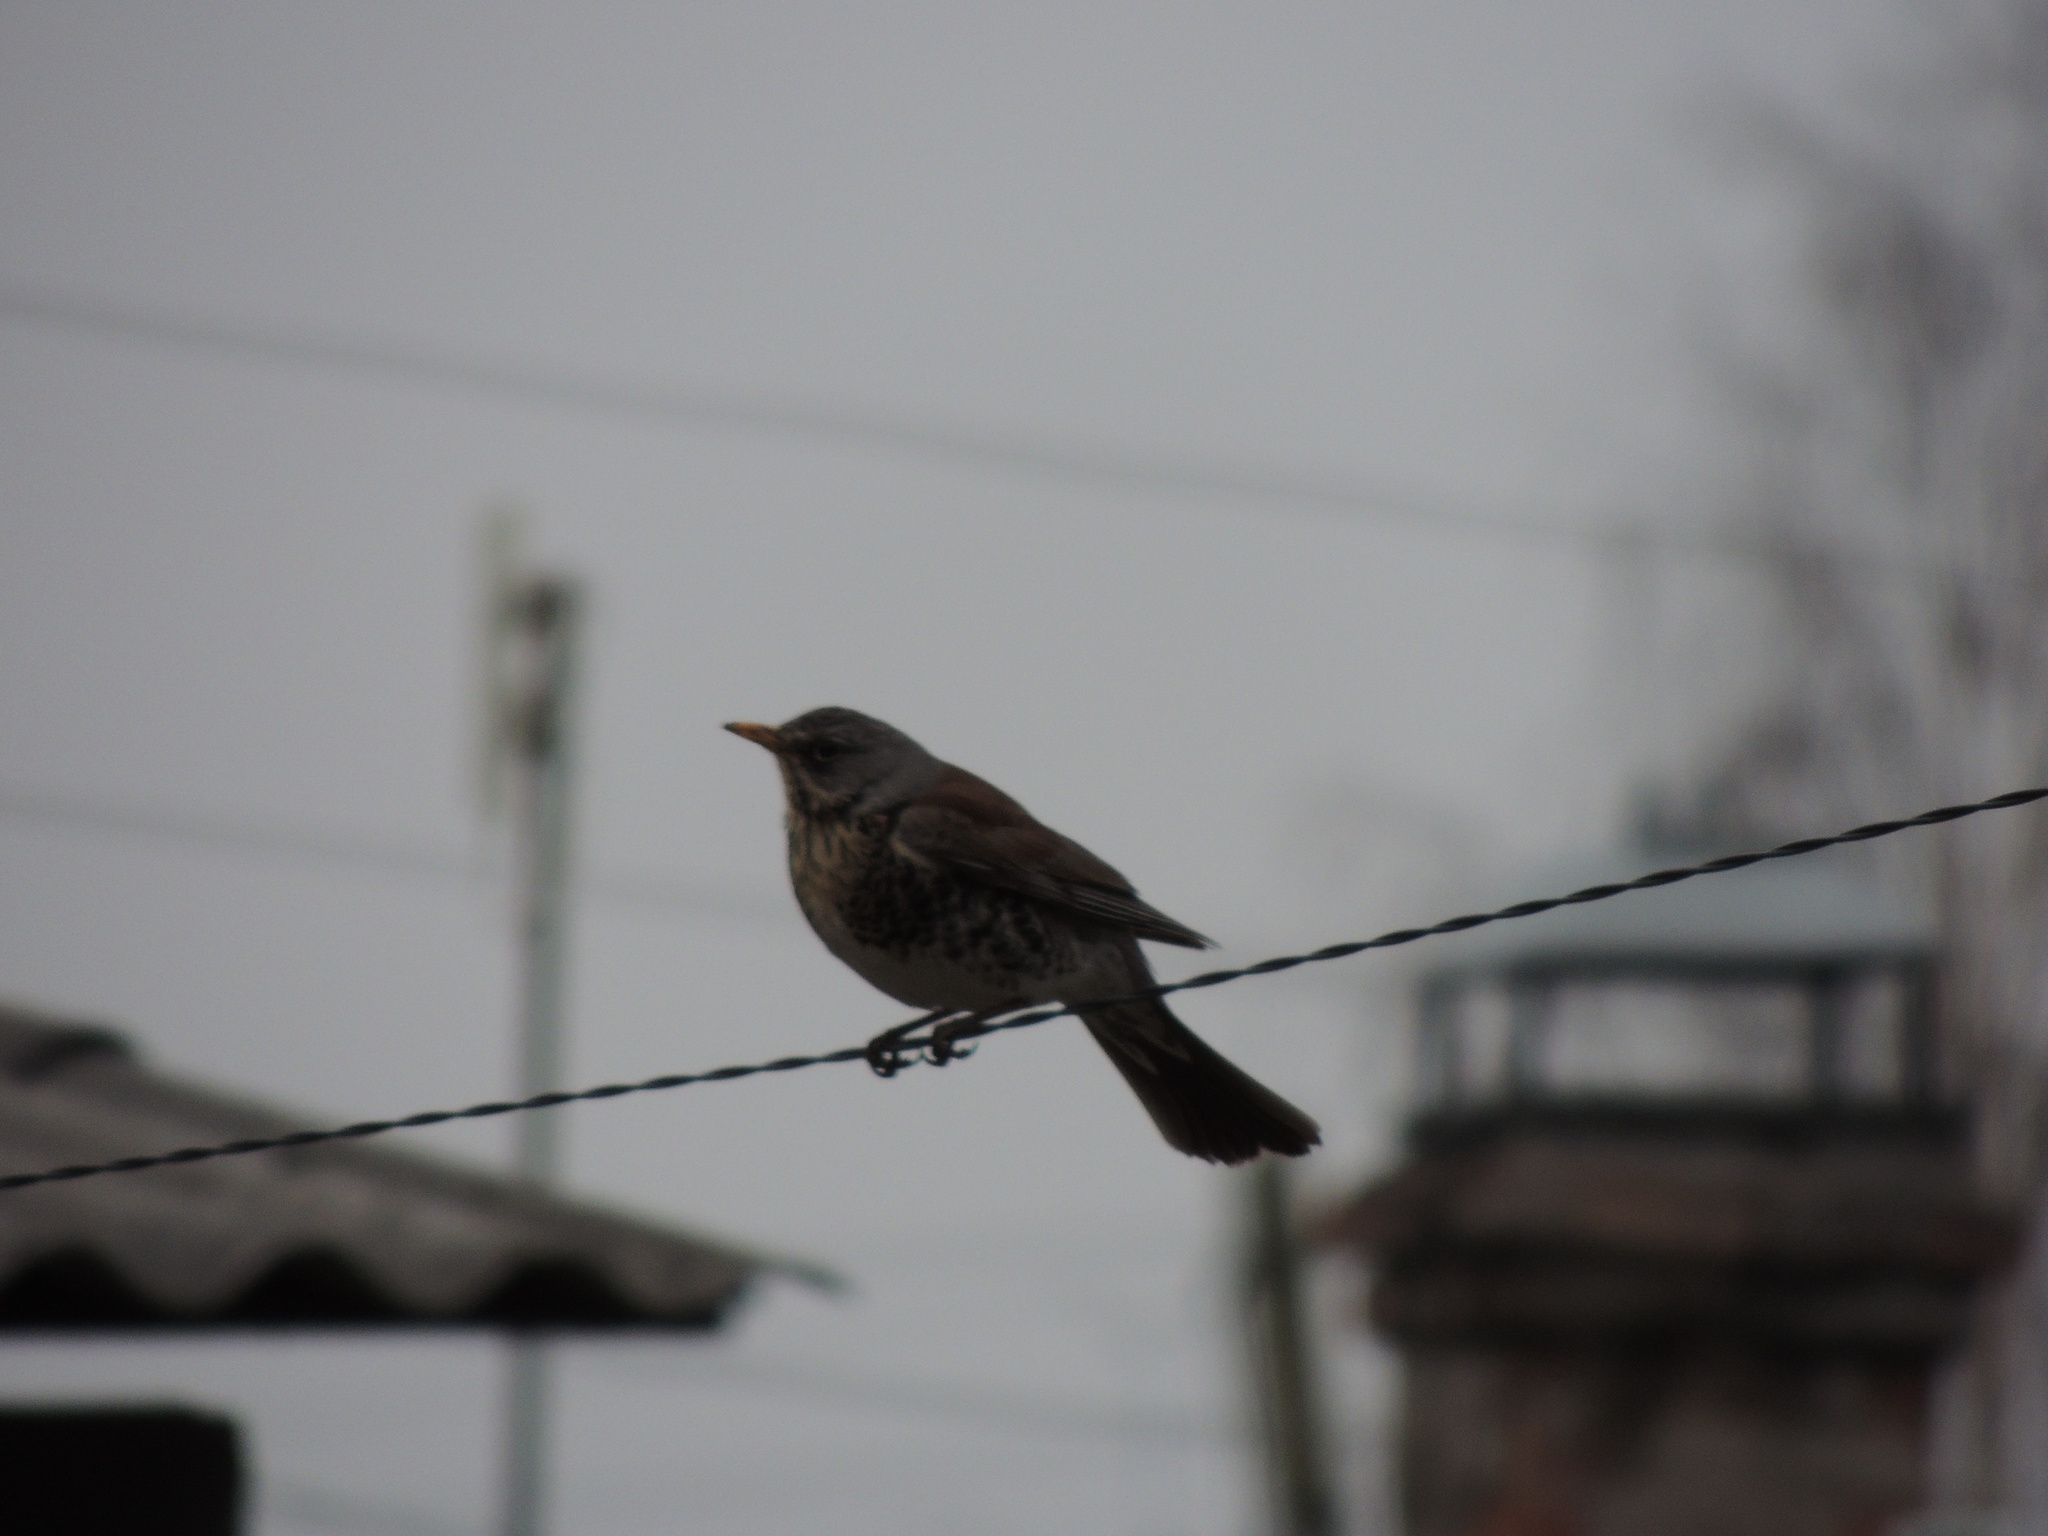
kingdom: Animalia
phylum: Chordata
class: Aves
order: Passeriformes
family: Turdidae
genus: Turdus
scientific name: Turdus pilaris
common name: Fieldfare
